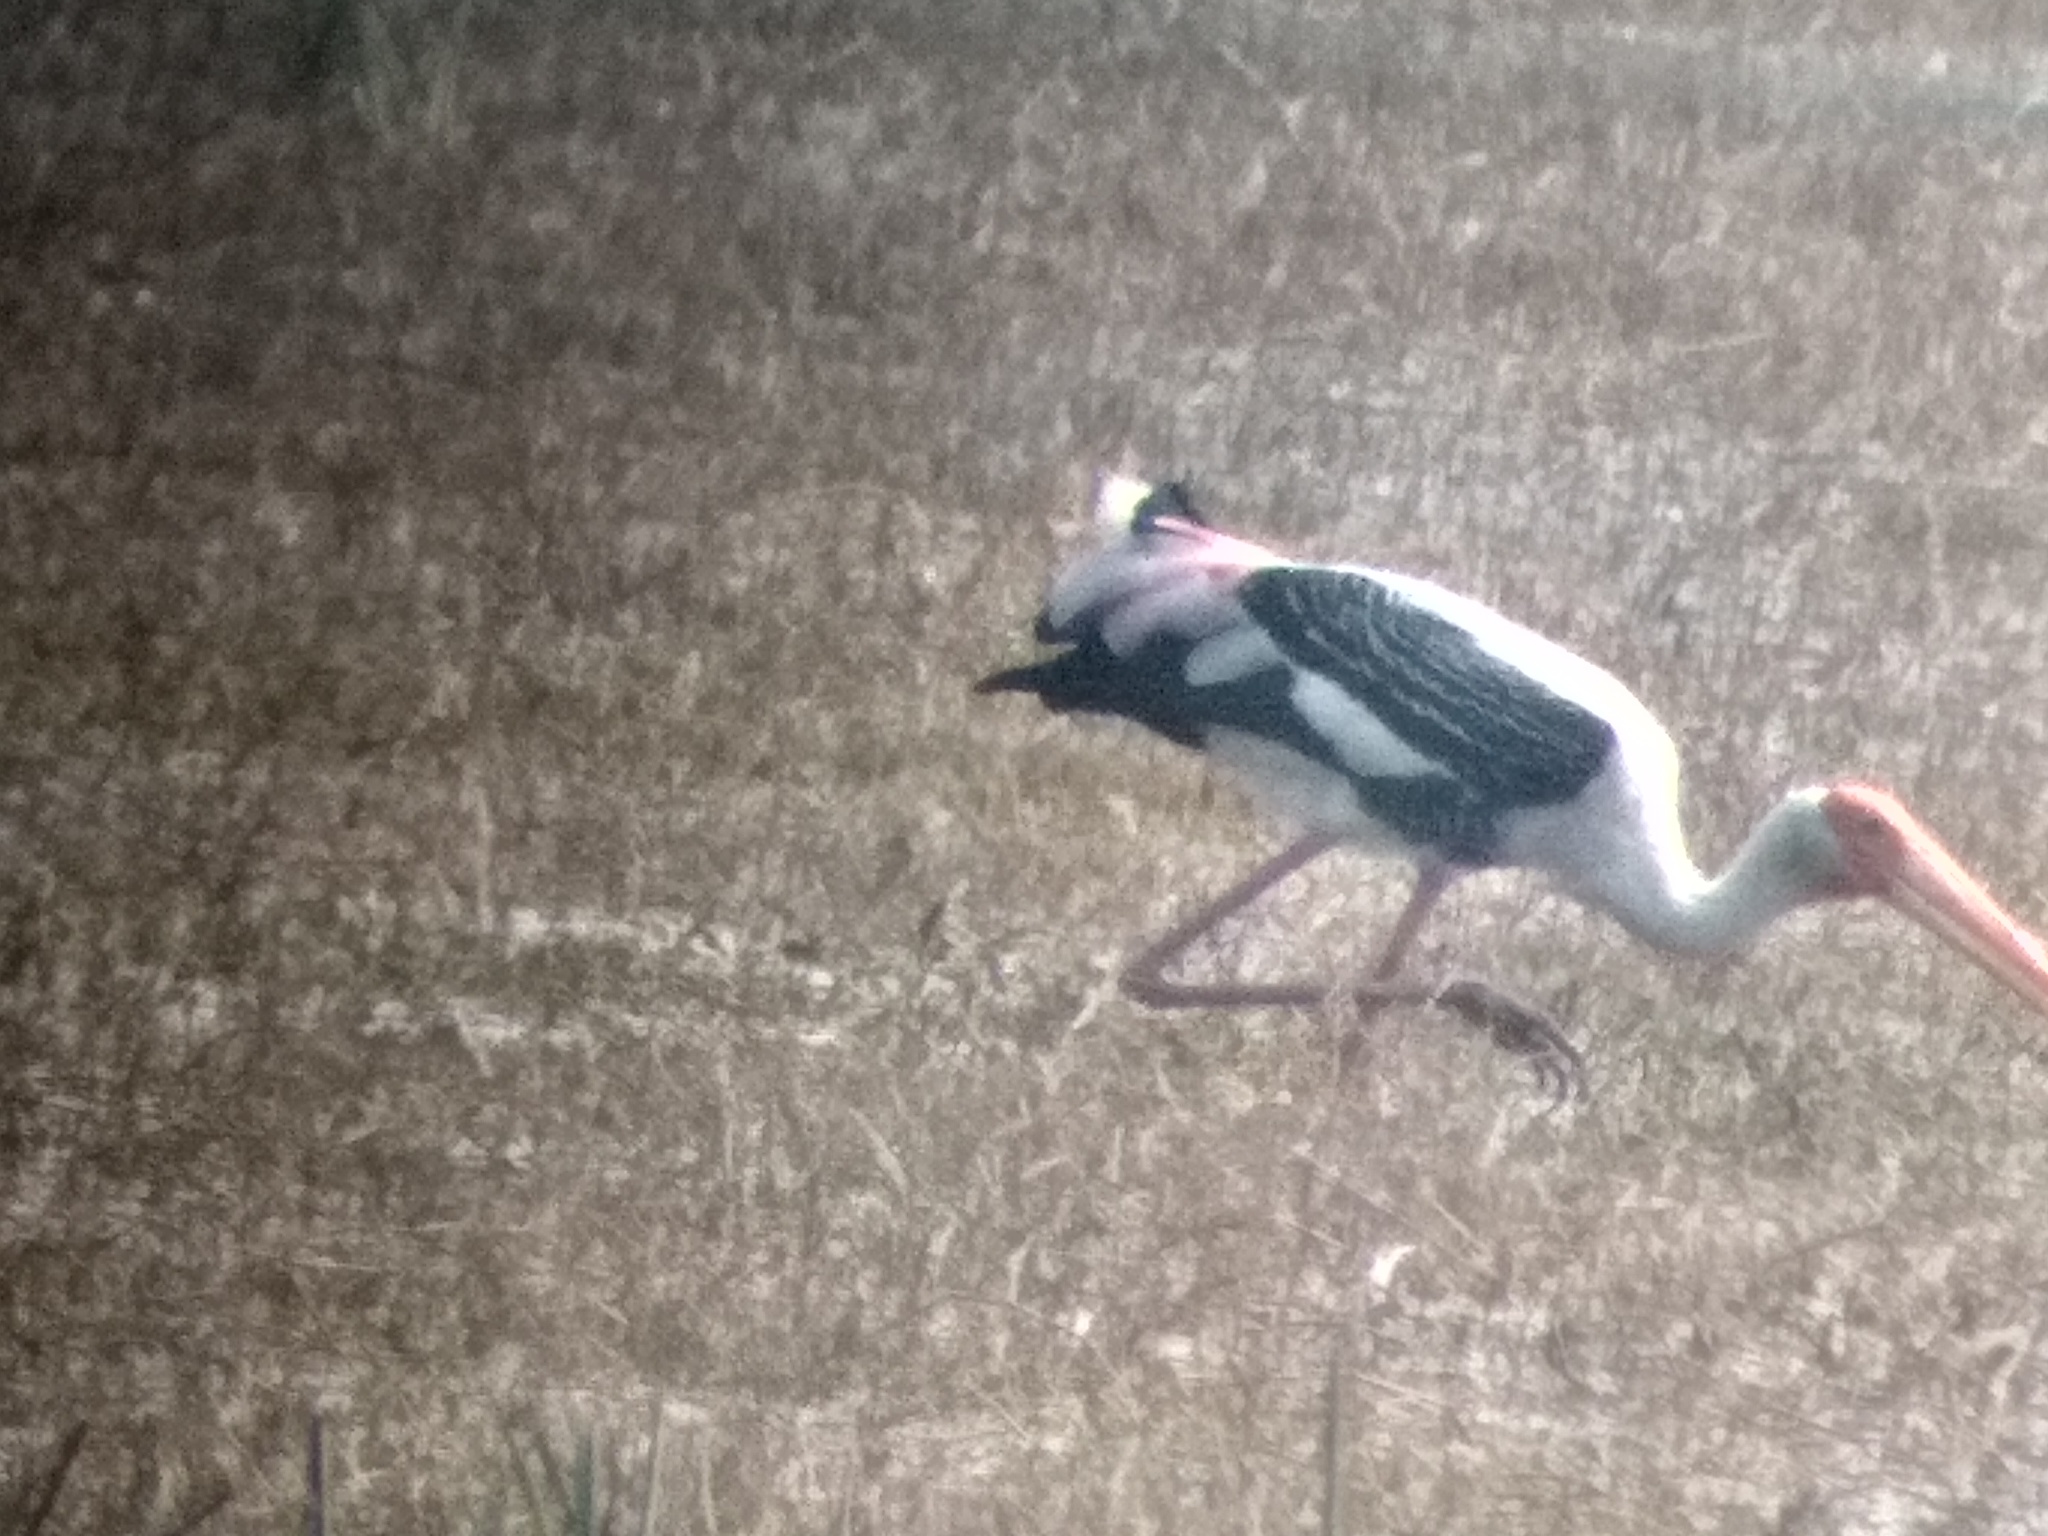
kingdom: Animalia
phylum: Chordata
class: Aves
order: Ciconiiformes
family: Ciconiidae
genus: Mycteria
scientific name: Mycteria leucocephala
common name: Painted stork
